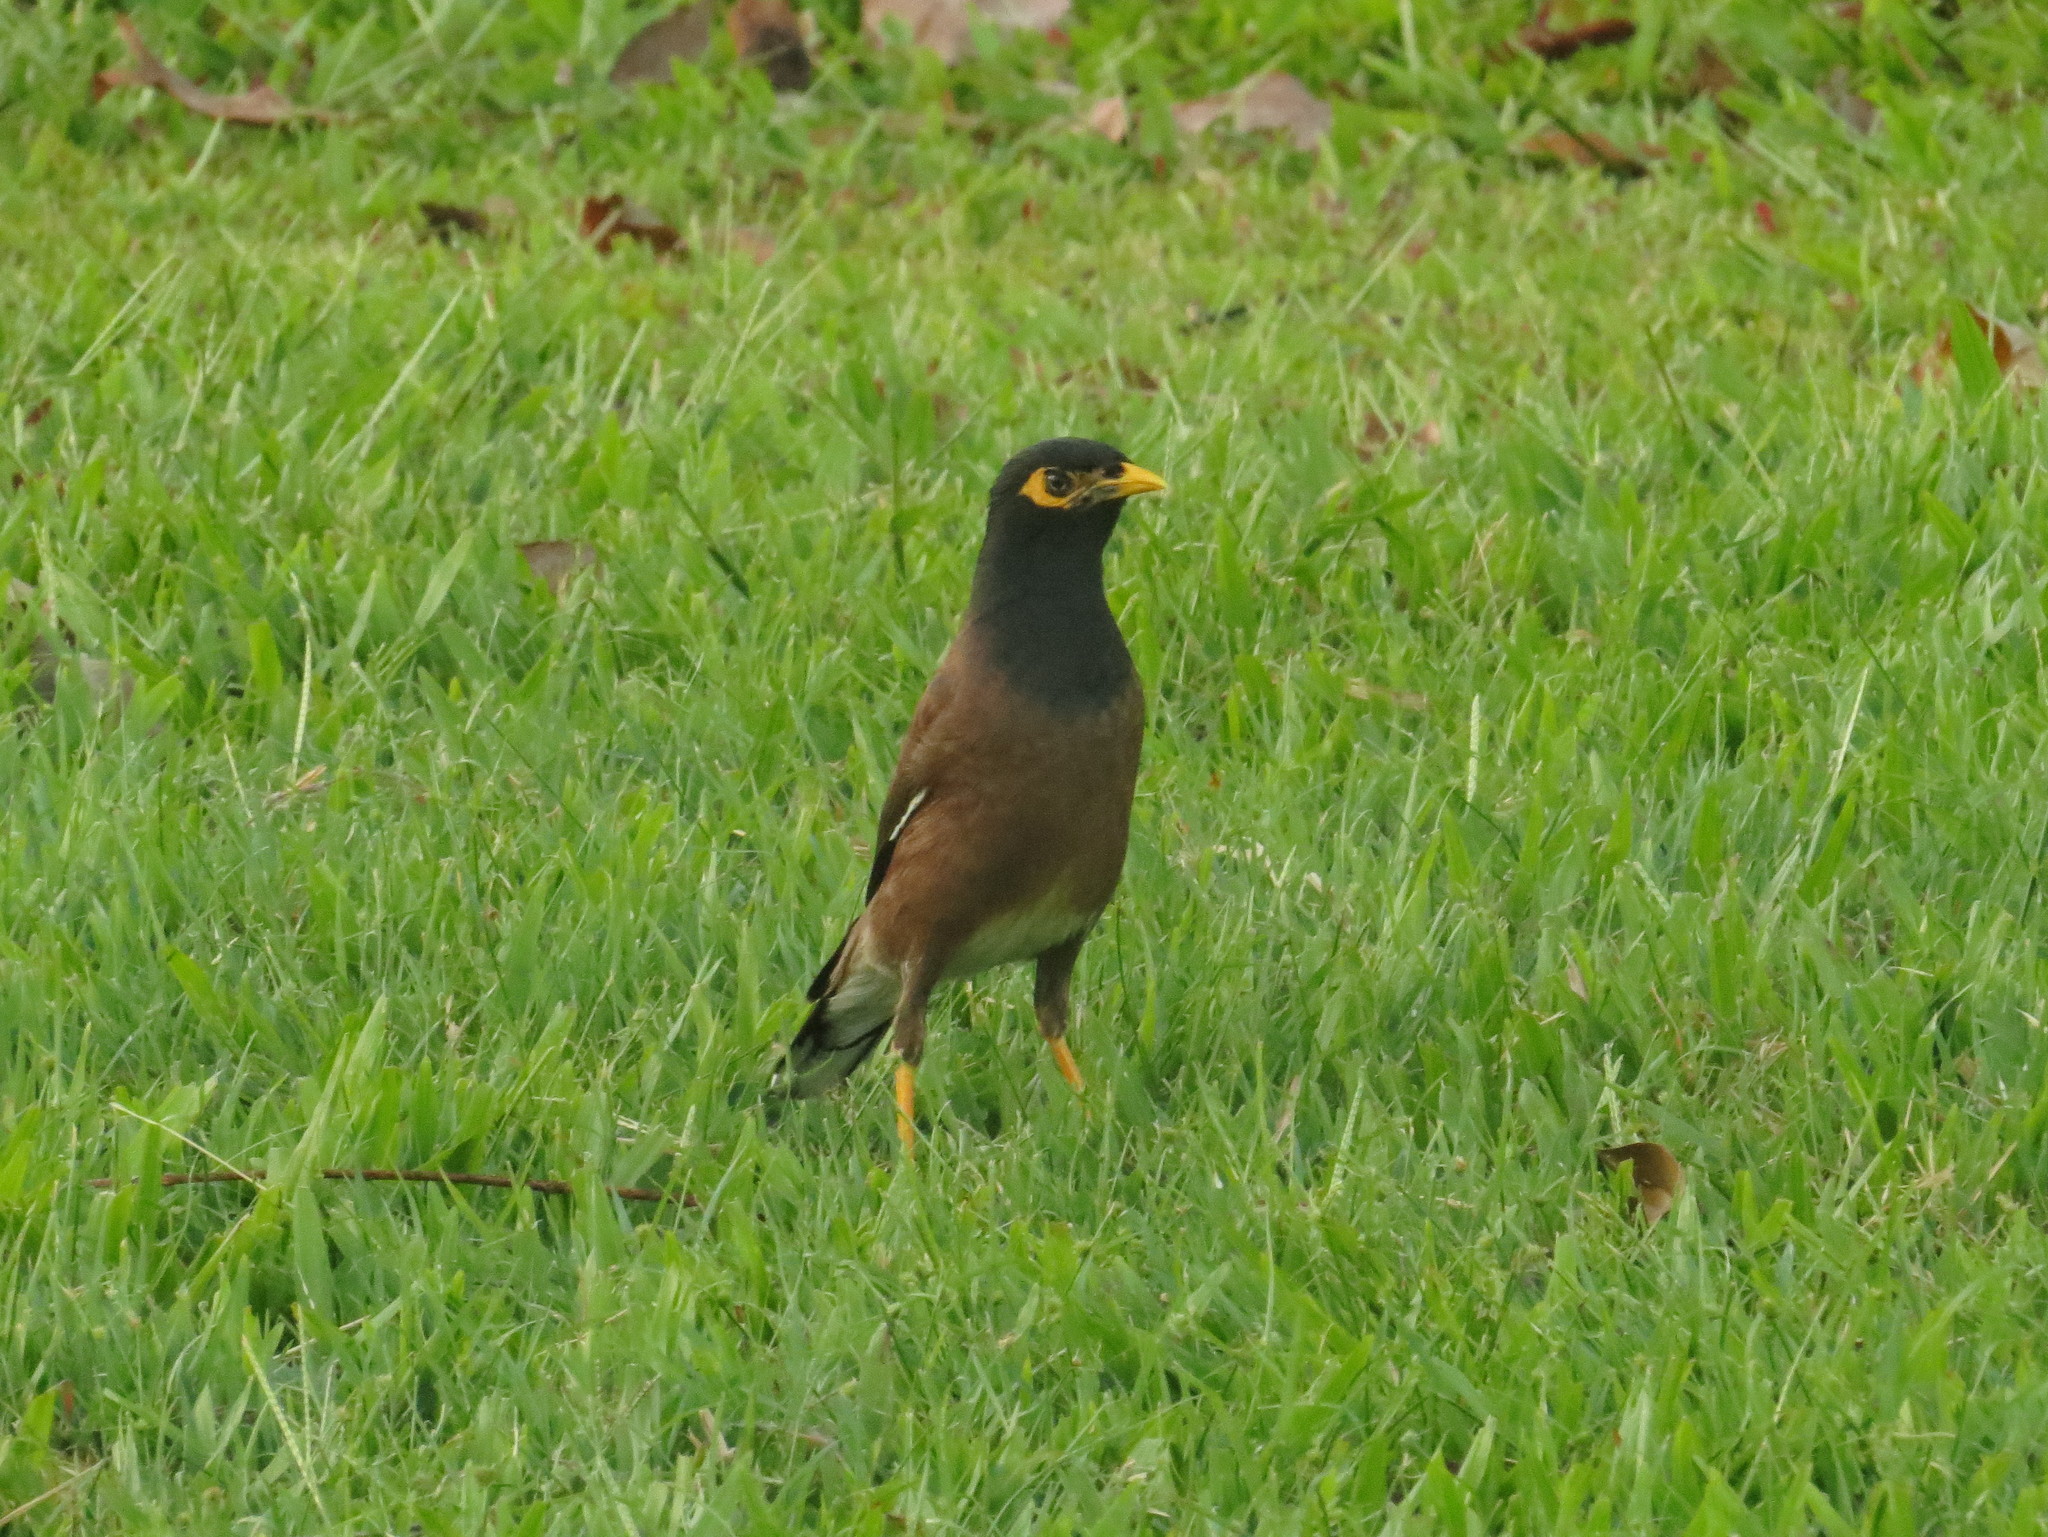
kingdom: Animalia
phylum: Chordata
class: Aves
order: Passeriformes
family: Sturnidae
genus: Acridotheres
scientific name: Acridotheres tristis
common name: Common myna
